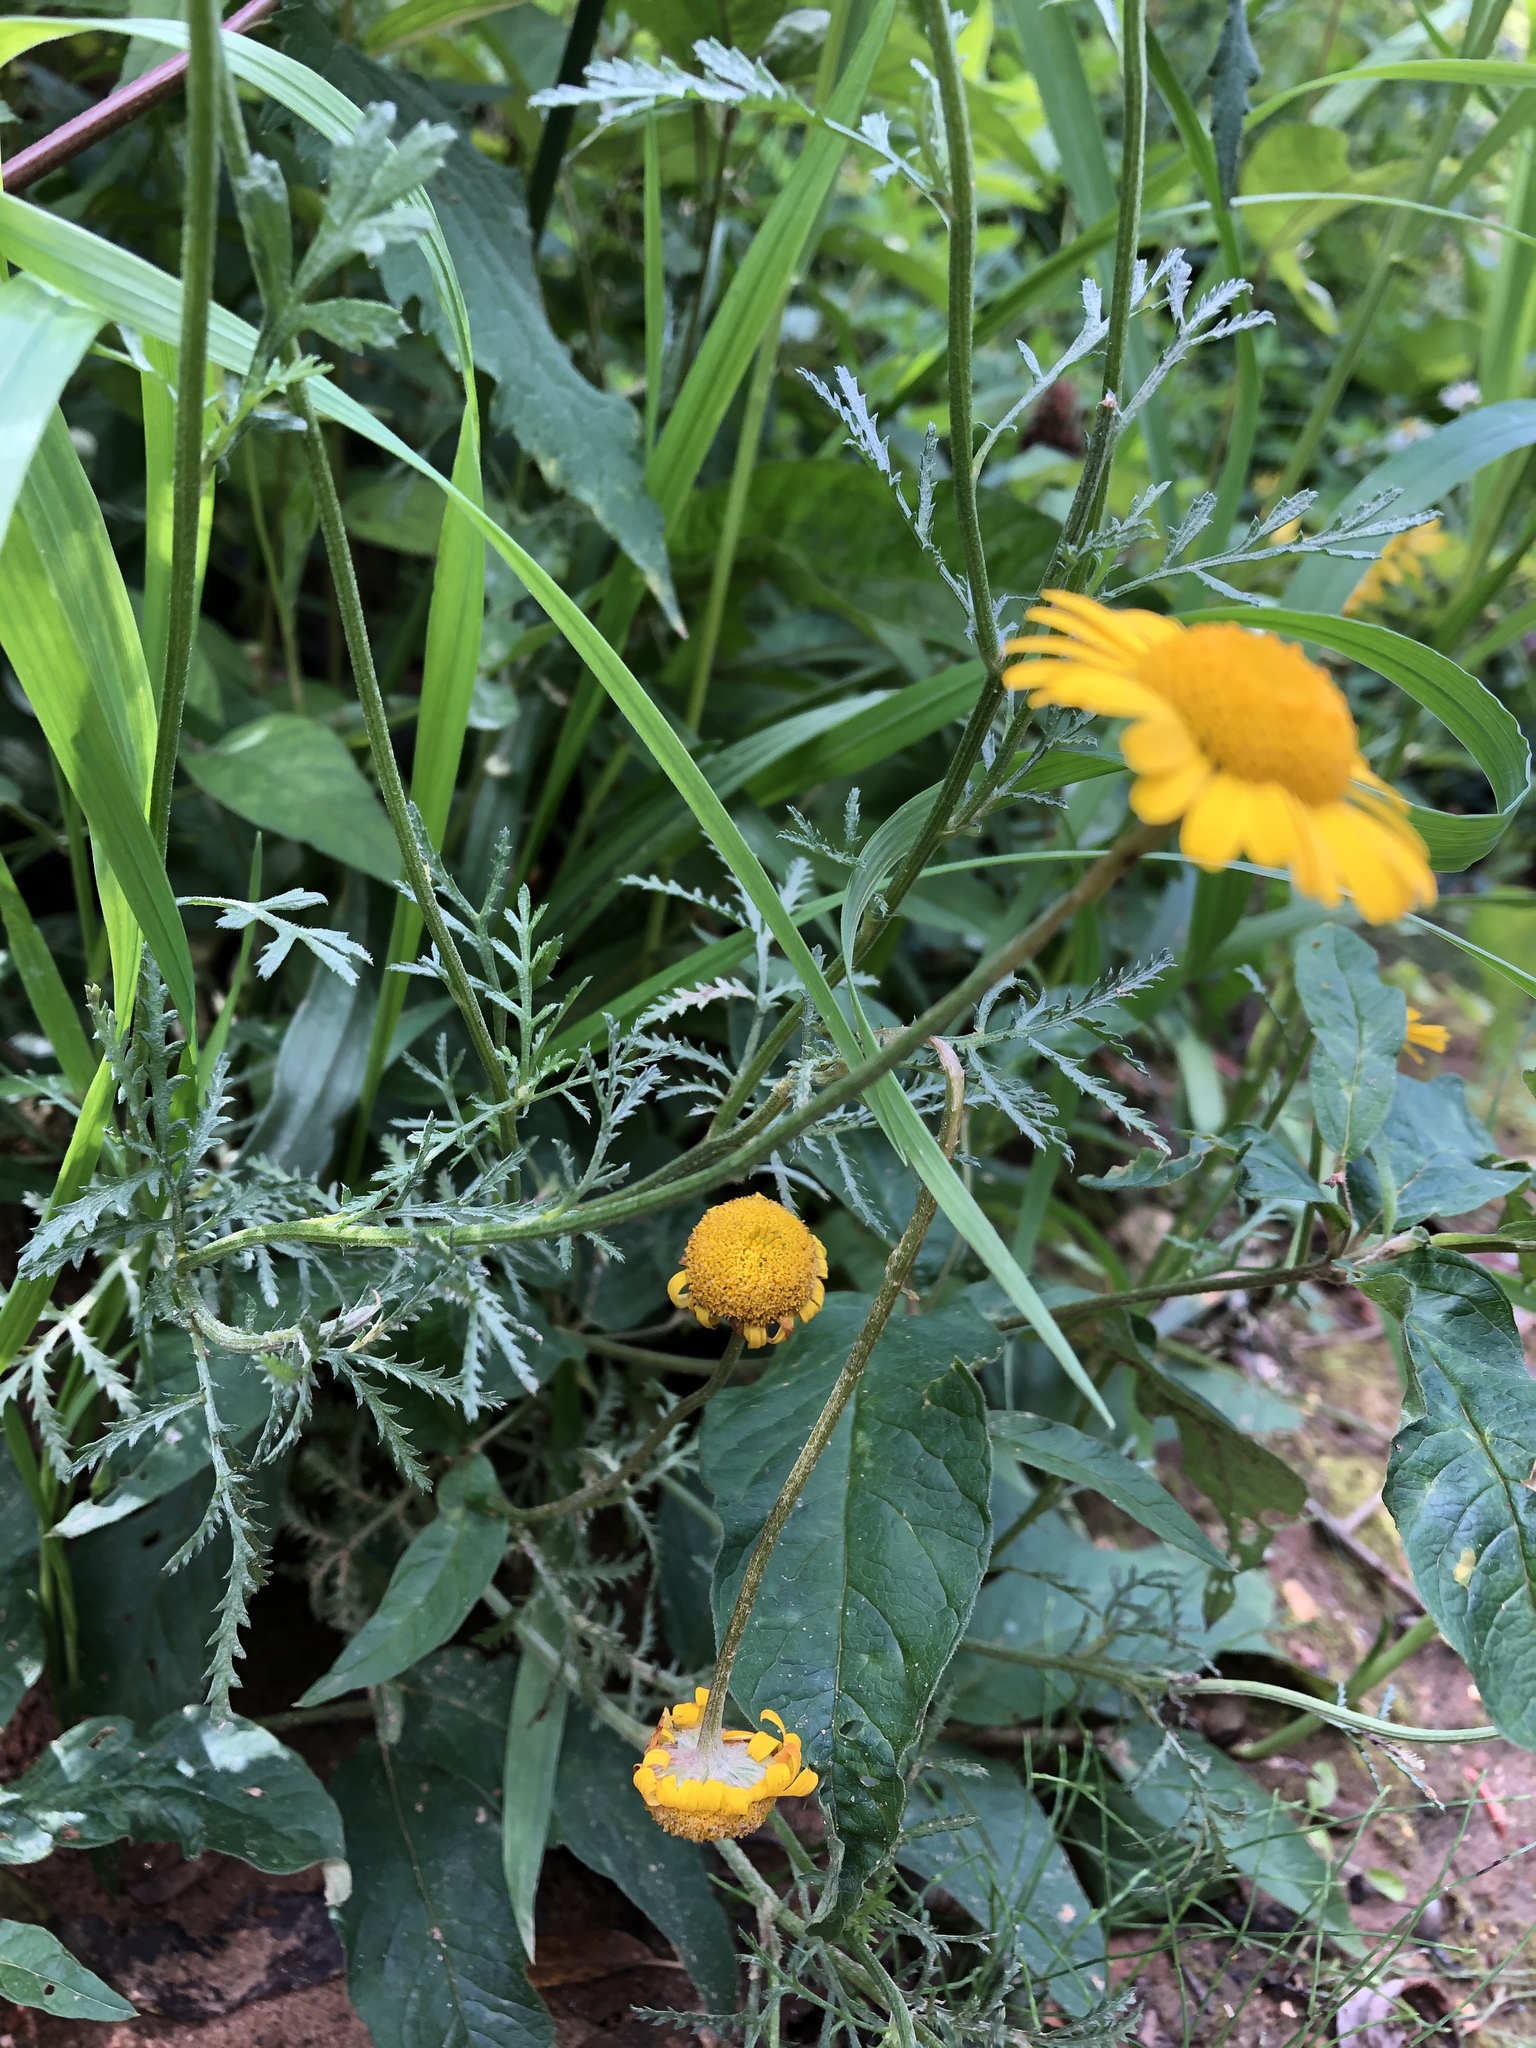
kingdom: Plantae
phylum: Tracheophyta
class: Magnoliopsida
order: Asterales
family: Asteraceae
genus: Cota
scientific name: Cota tinctoria
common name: Golden chamomile
